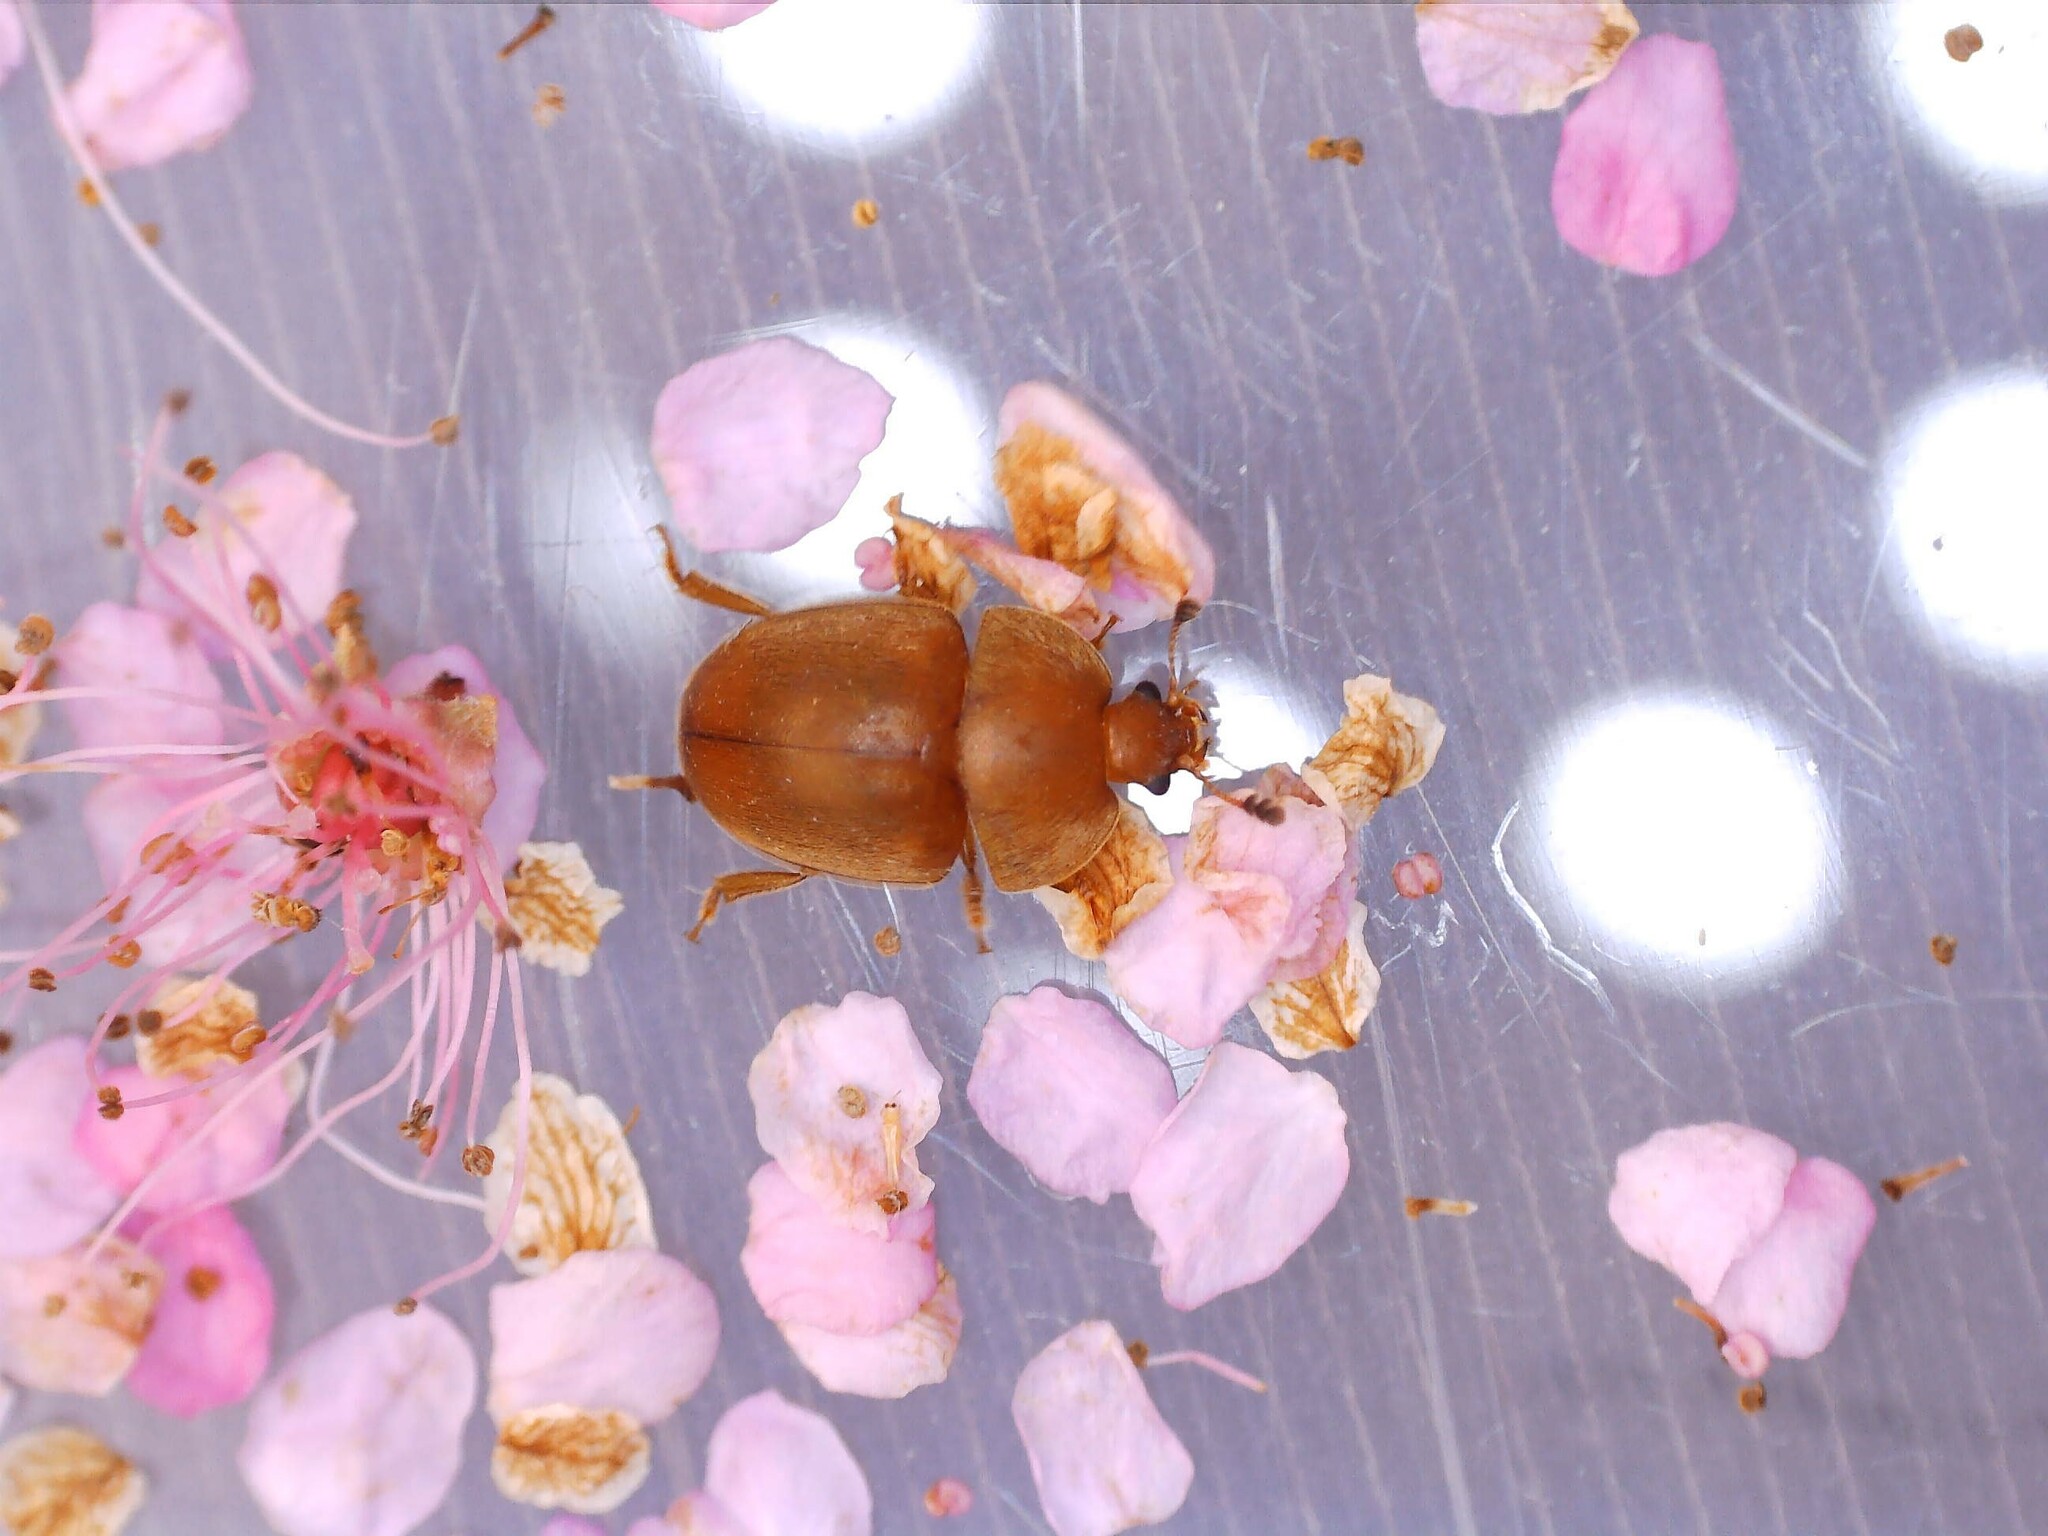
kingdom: Animalia
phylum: Arthropoda
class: Insecta
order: Coleoptera
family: Nitidulidae
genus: Cychramus
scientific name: Cychramus luteus
